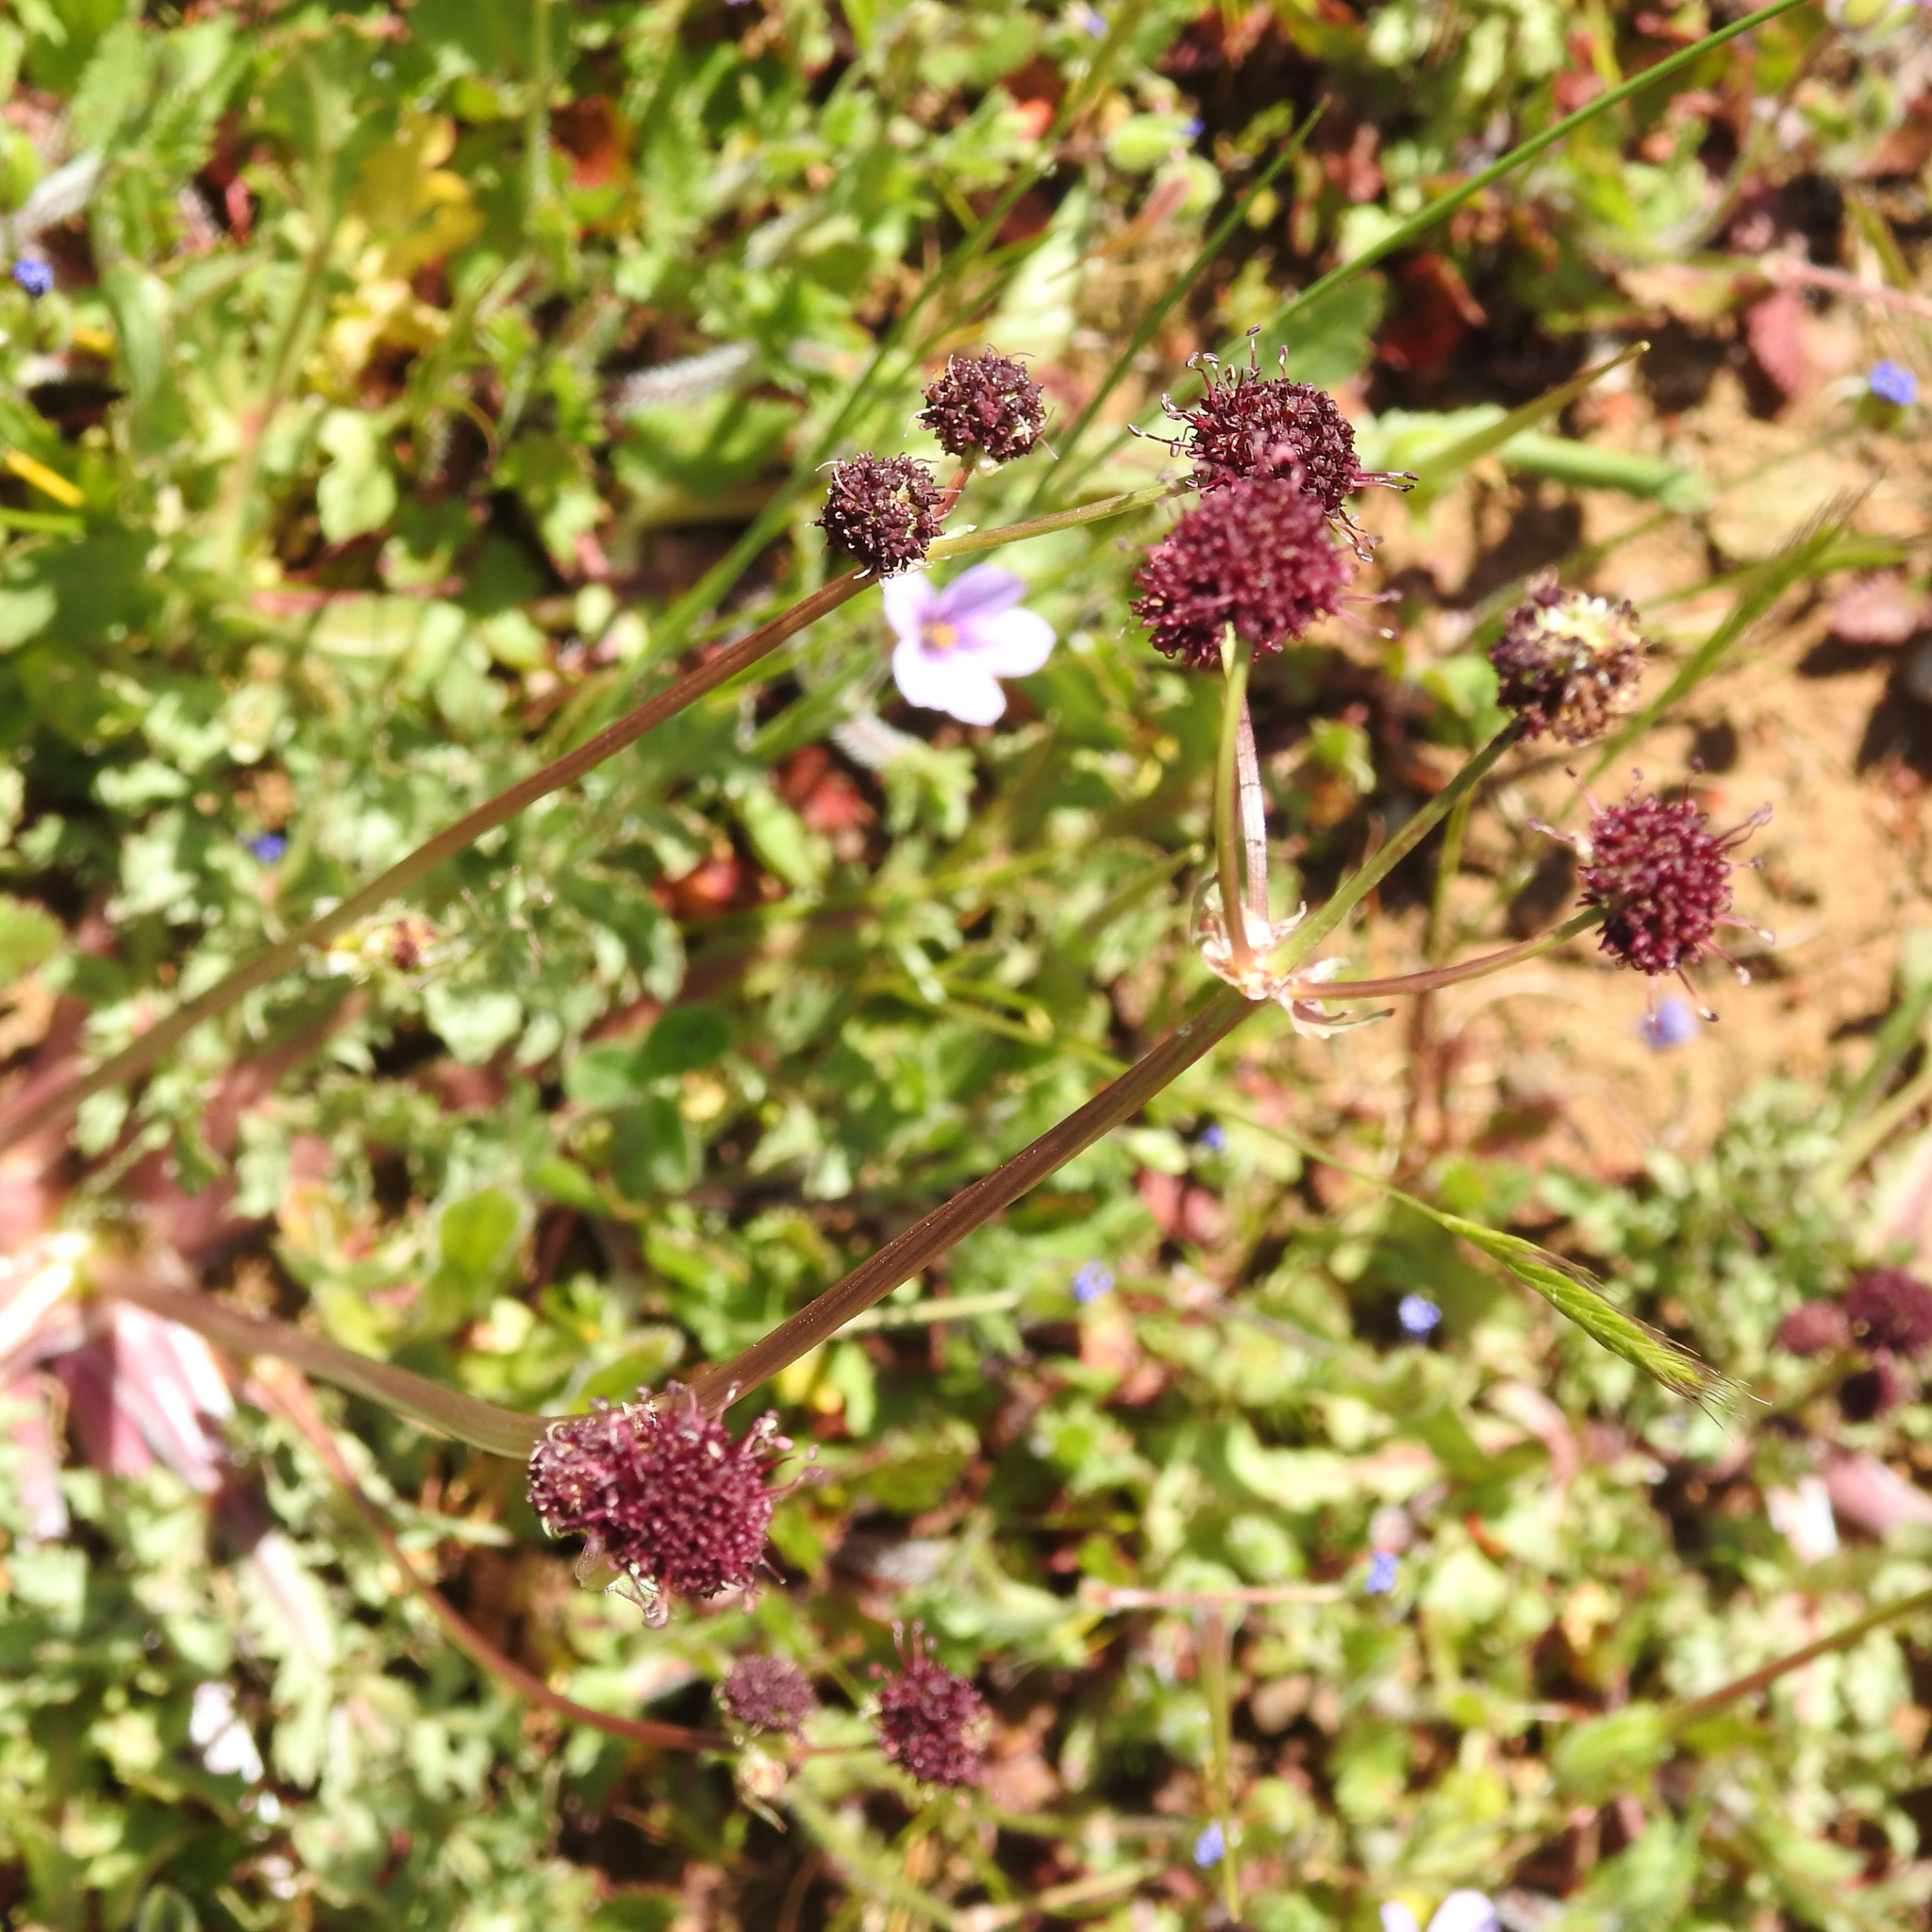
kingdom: Plantae
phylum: Tracheophyta
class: Magnoliopsida
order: Apiales
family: Apiaceae
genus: Sanicula
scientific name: Sanicula bipinnatifida
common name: Shoe-buttons
